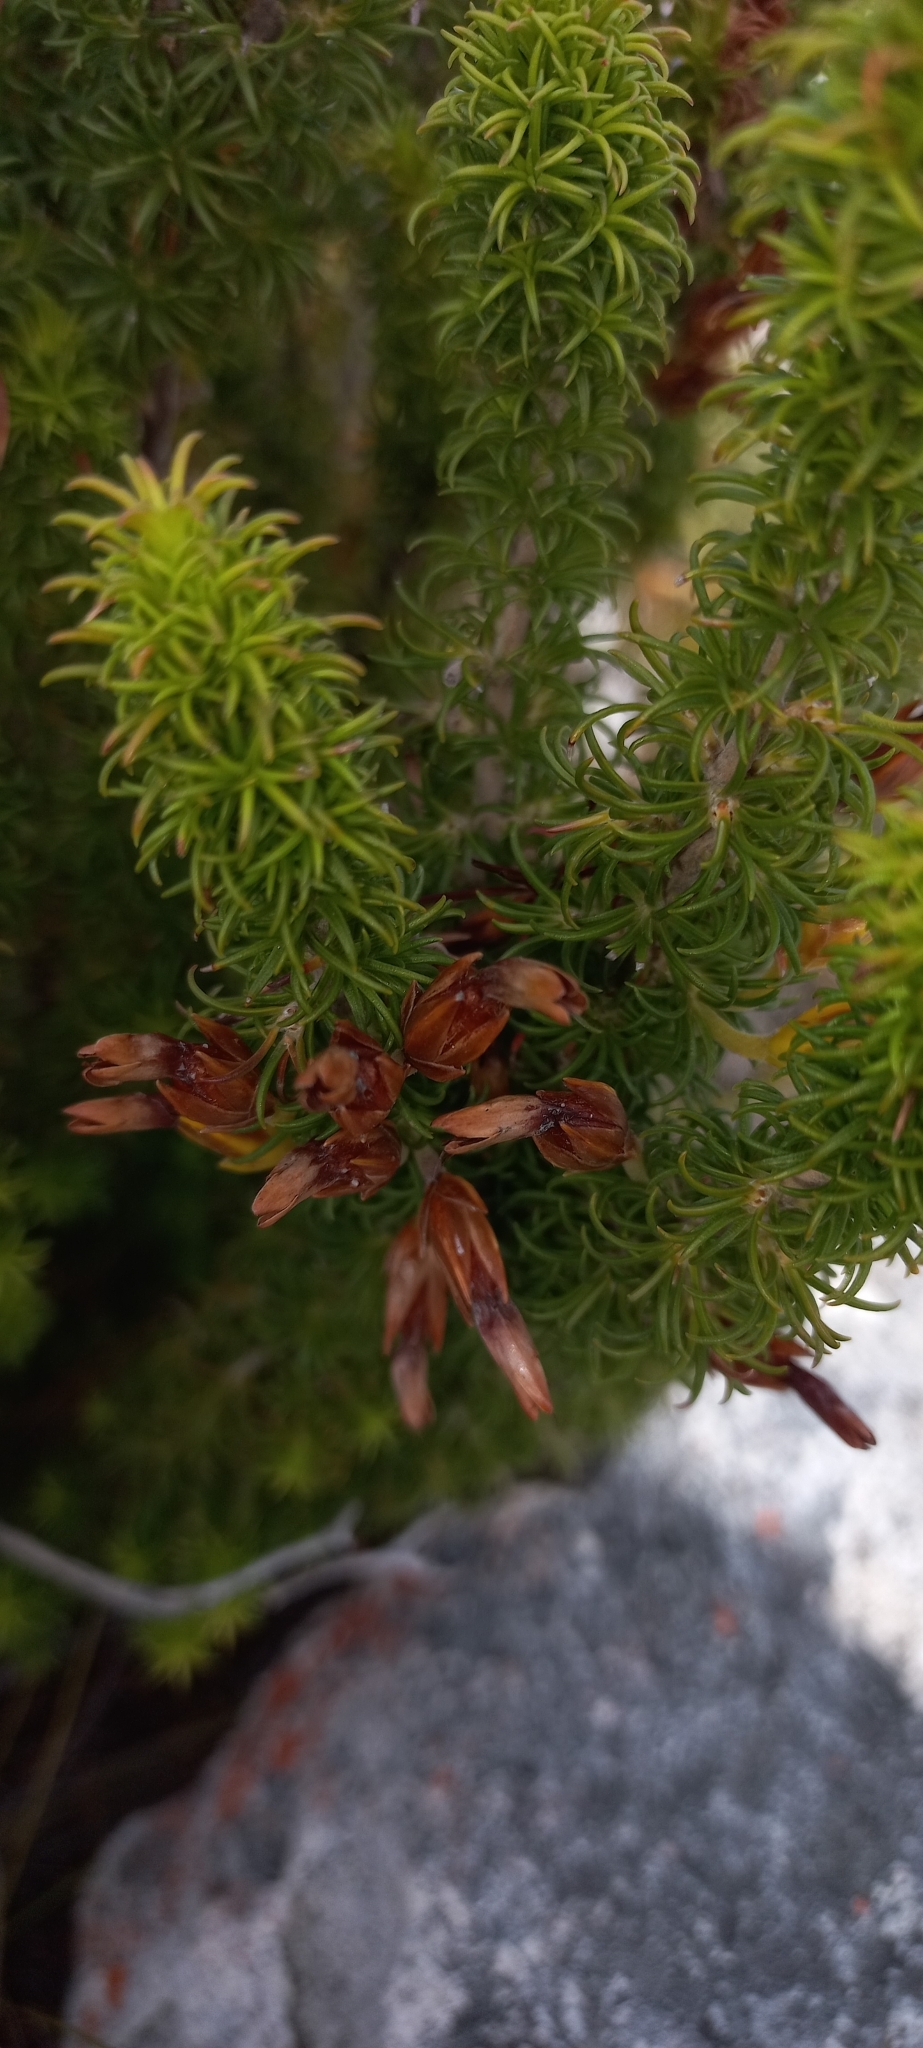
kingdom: Plantae
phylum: Tracheophyta
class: Magnoliopsida
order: Ericales
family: Ericaceae
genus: Erica
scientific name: Erica coccinea
